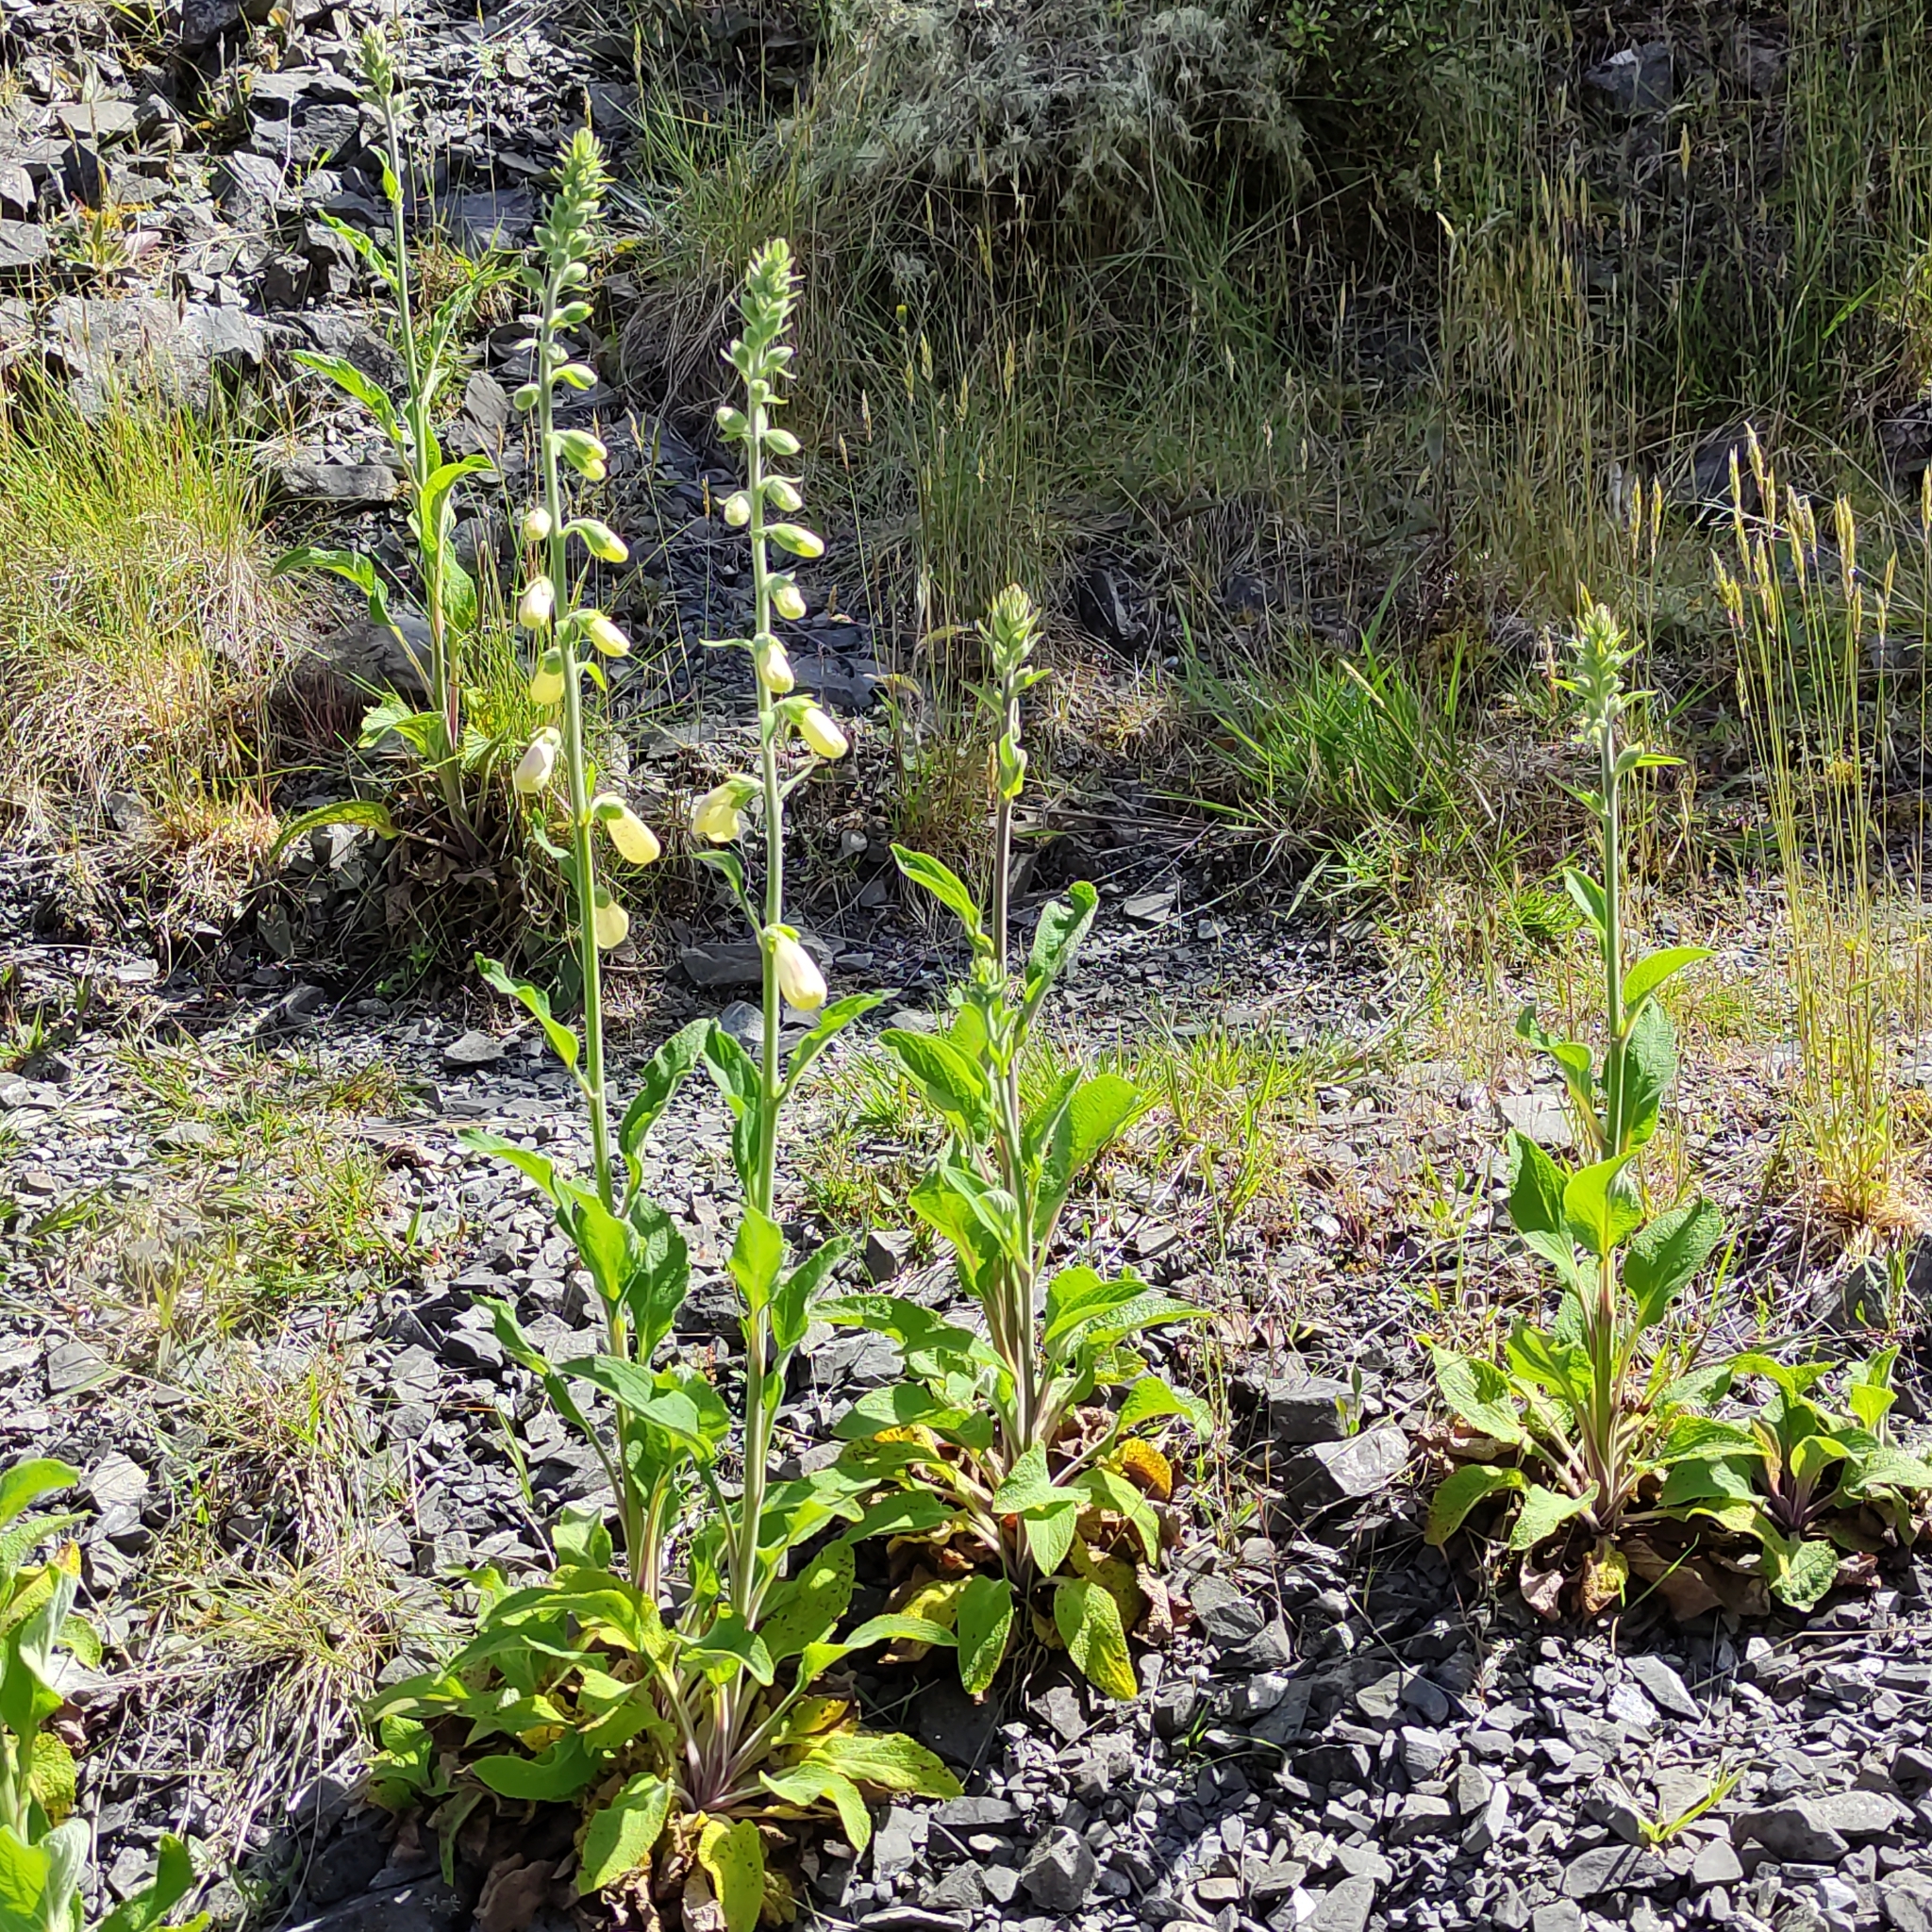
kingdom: Plantae
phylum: Tracheophyta
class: Magnoliopsida
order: Lamiales
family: Plantaginaceae
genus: Digitalis
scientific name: Digitalis purpurea
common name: Foxglove
